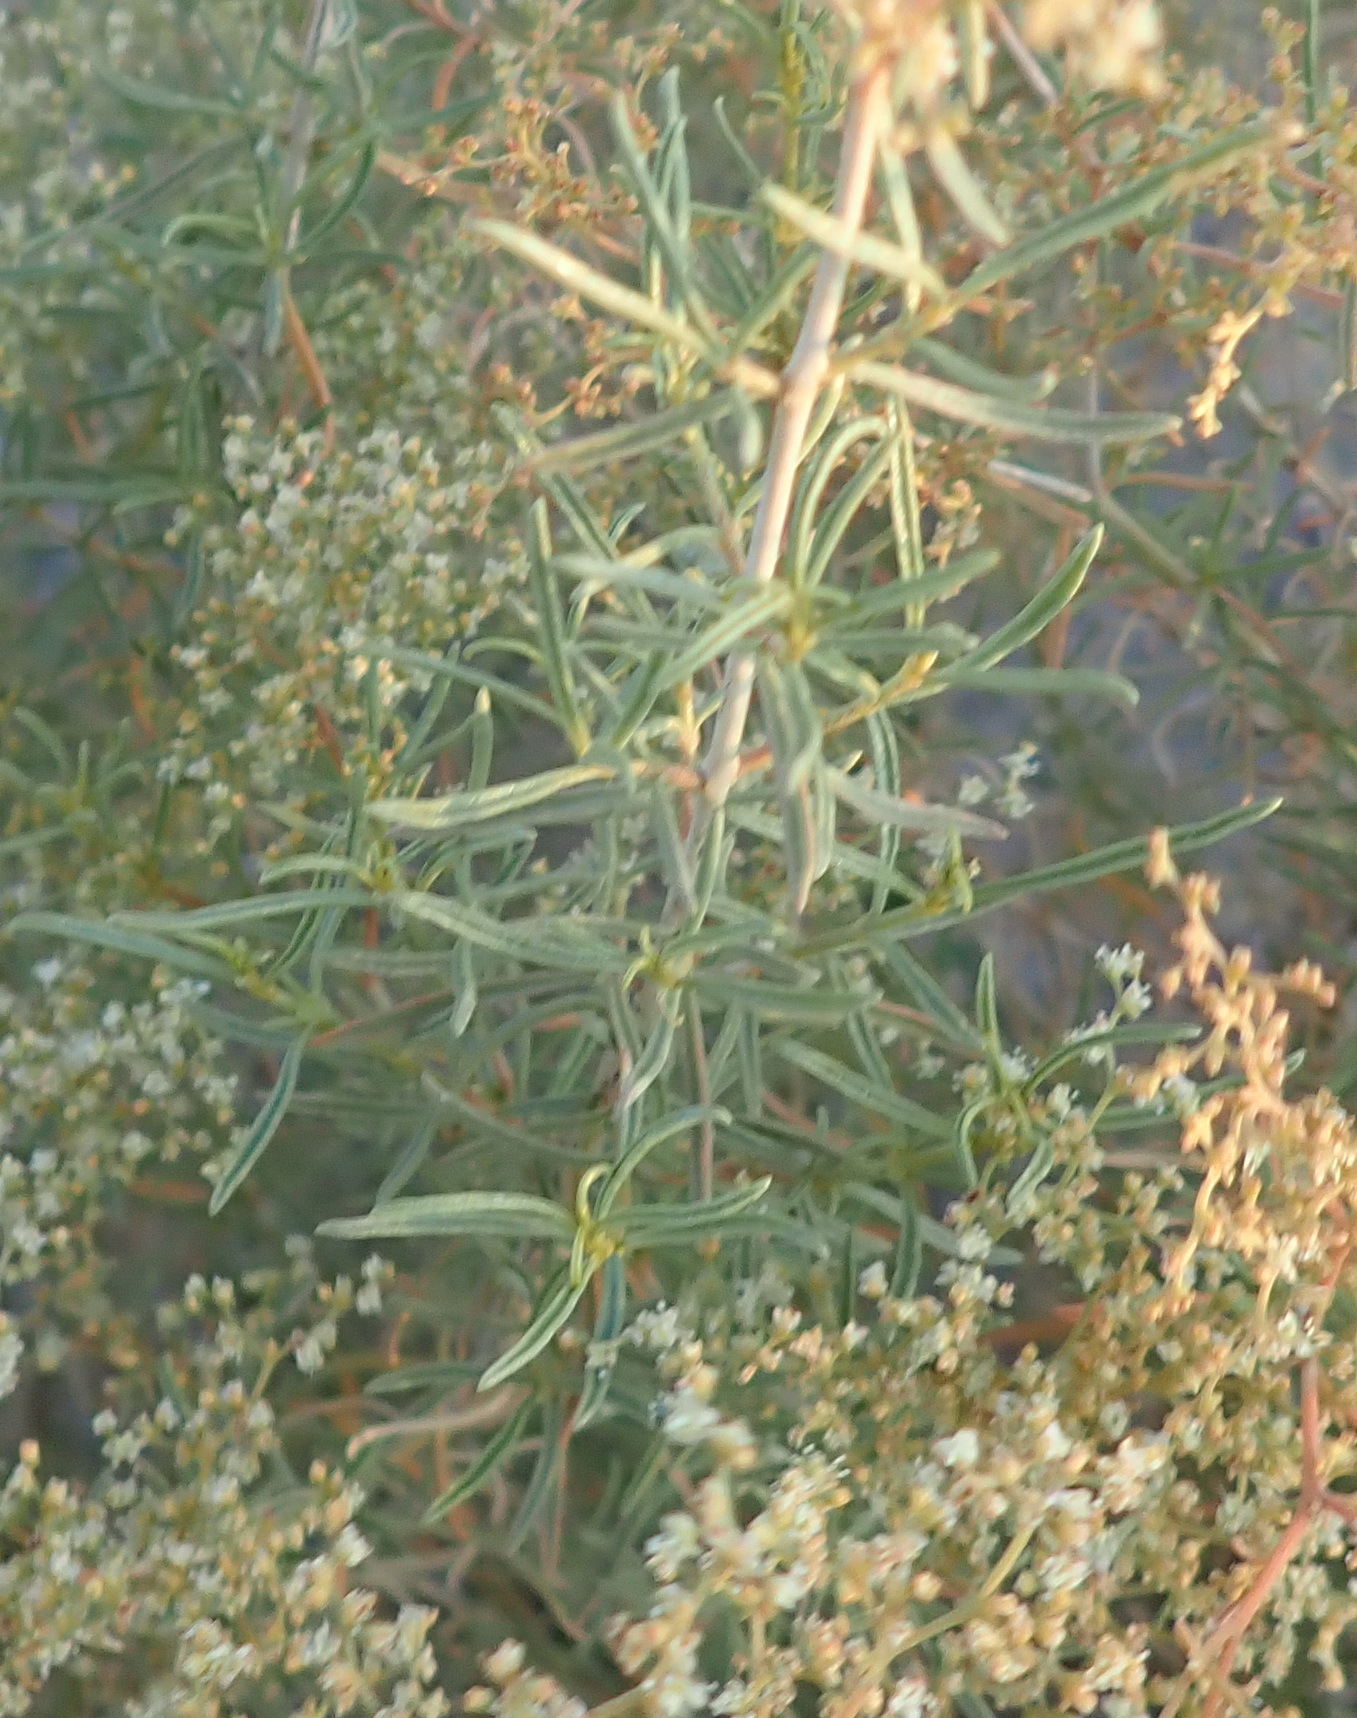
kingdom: Plantae
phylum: Tracheophyta
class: Magnoliopsida
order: Caryophyllales
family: Aizoaceae
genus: Aizoon
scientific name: Aizoon africanum
